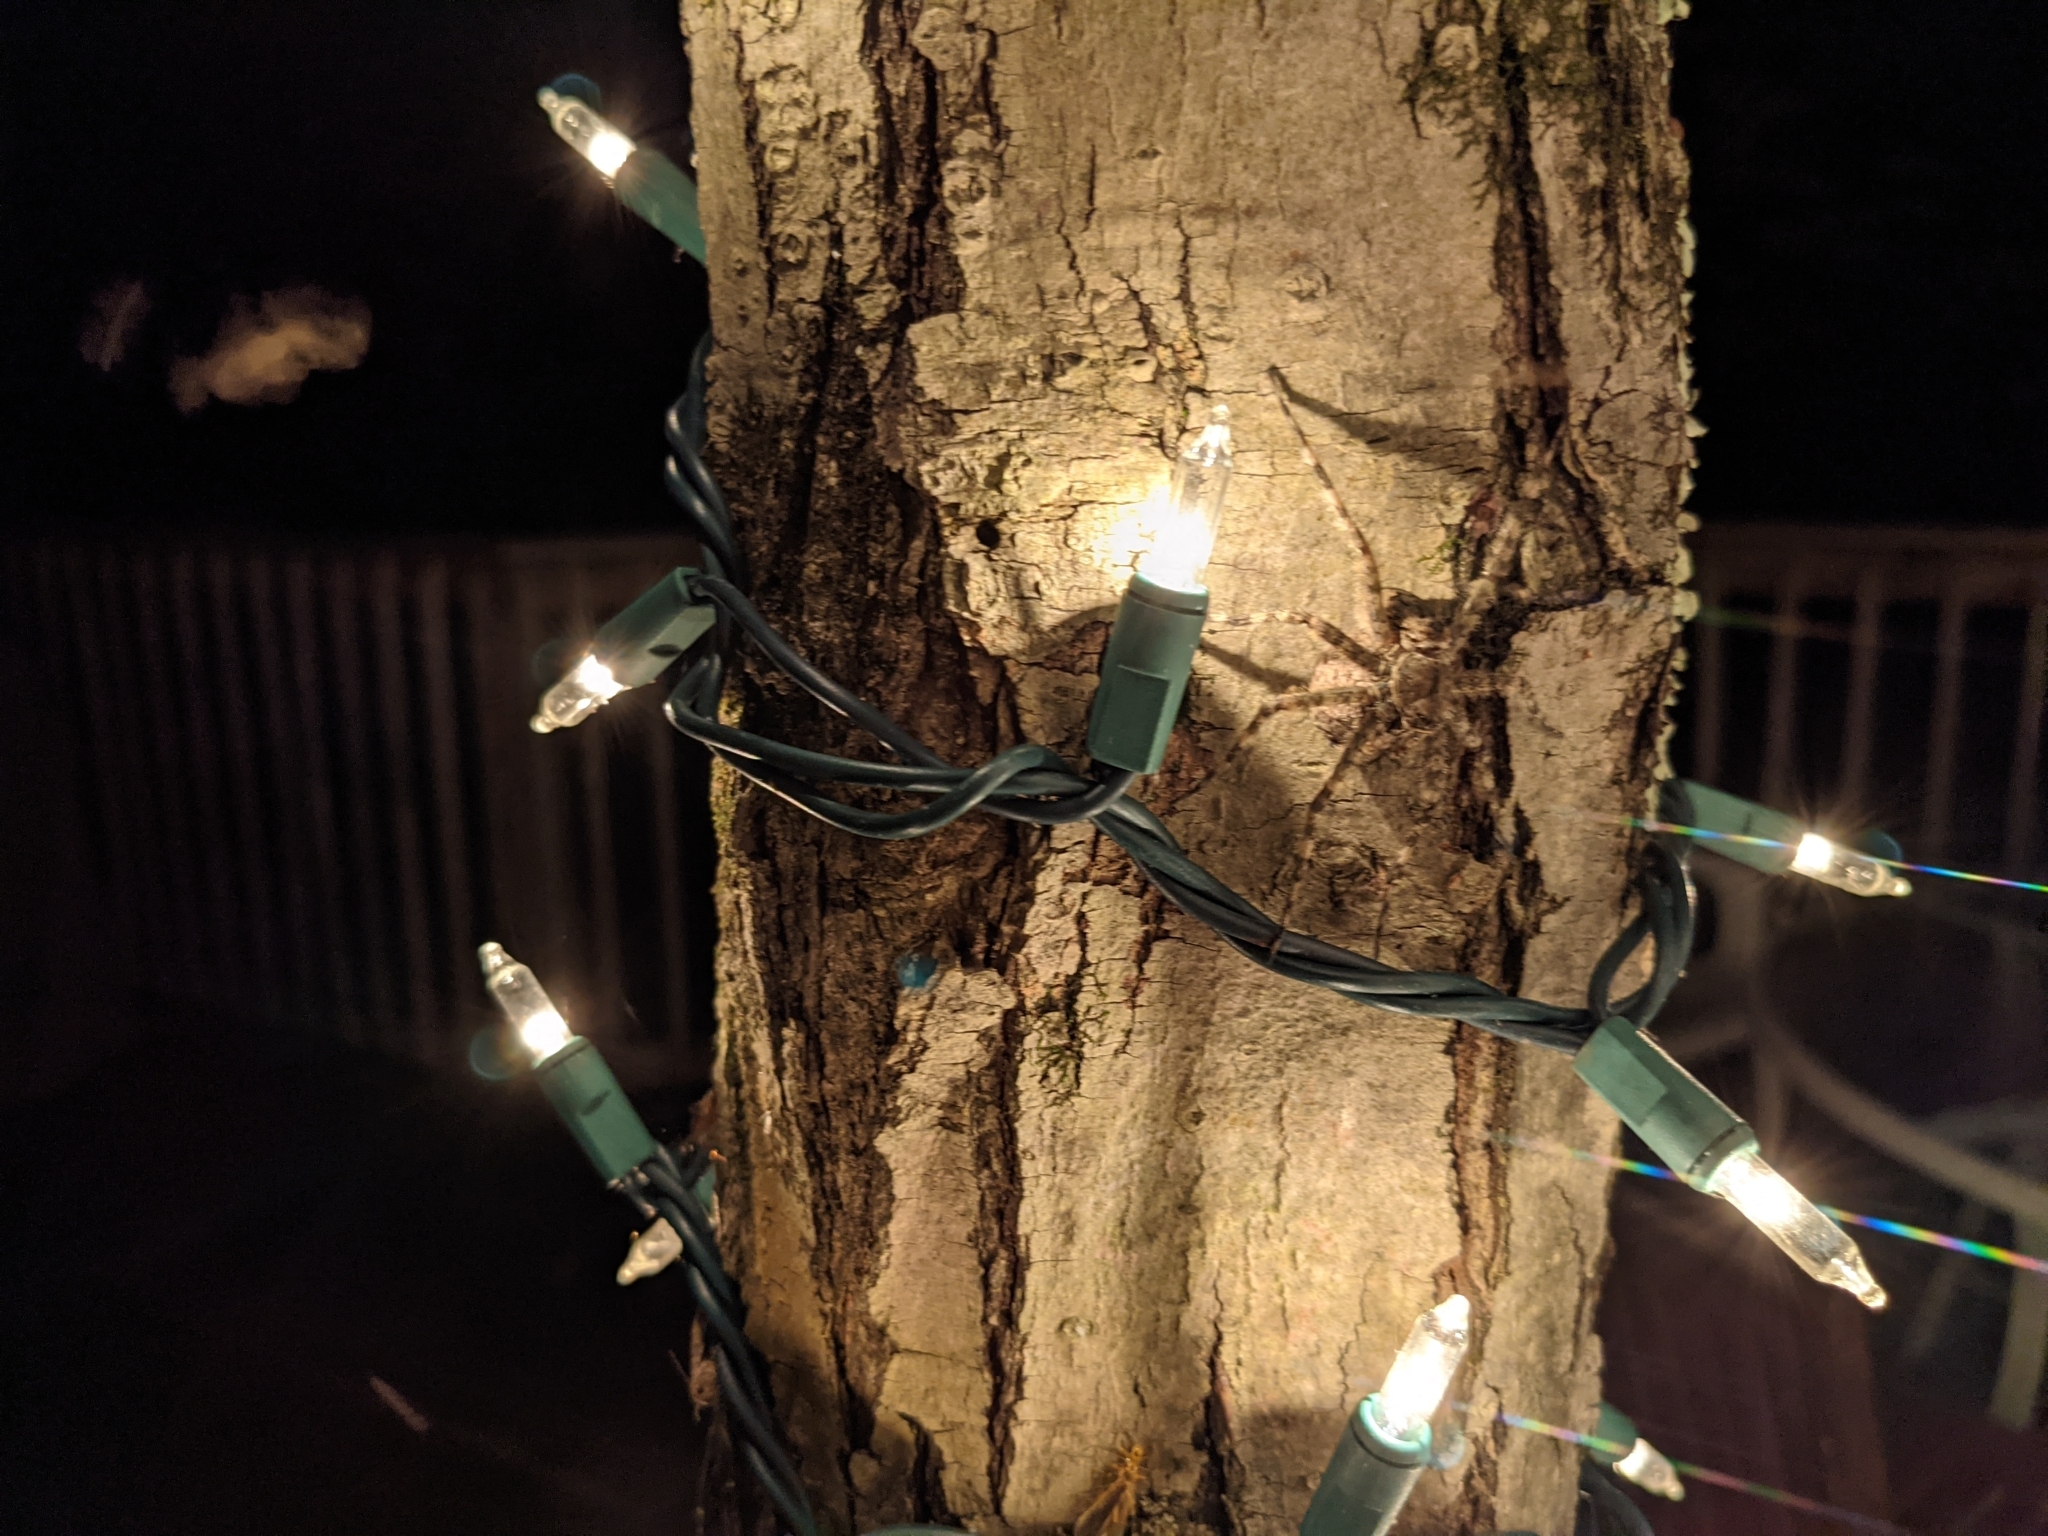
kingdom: Animalia
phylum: Arthropoda
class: Arachnida
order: Araneae
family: Pisauridae
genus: Dolomedes
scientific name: Dolomedes albineus
